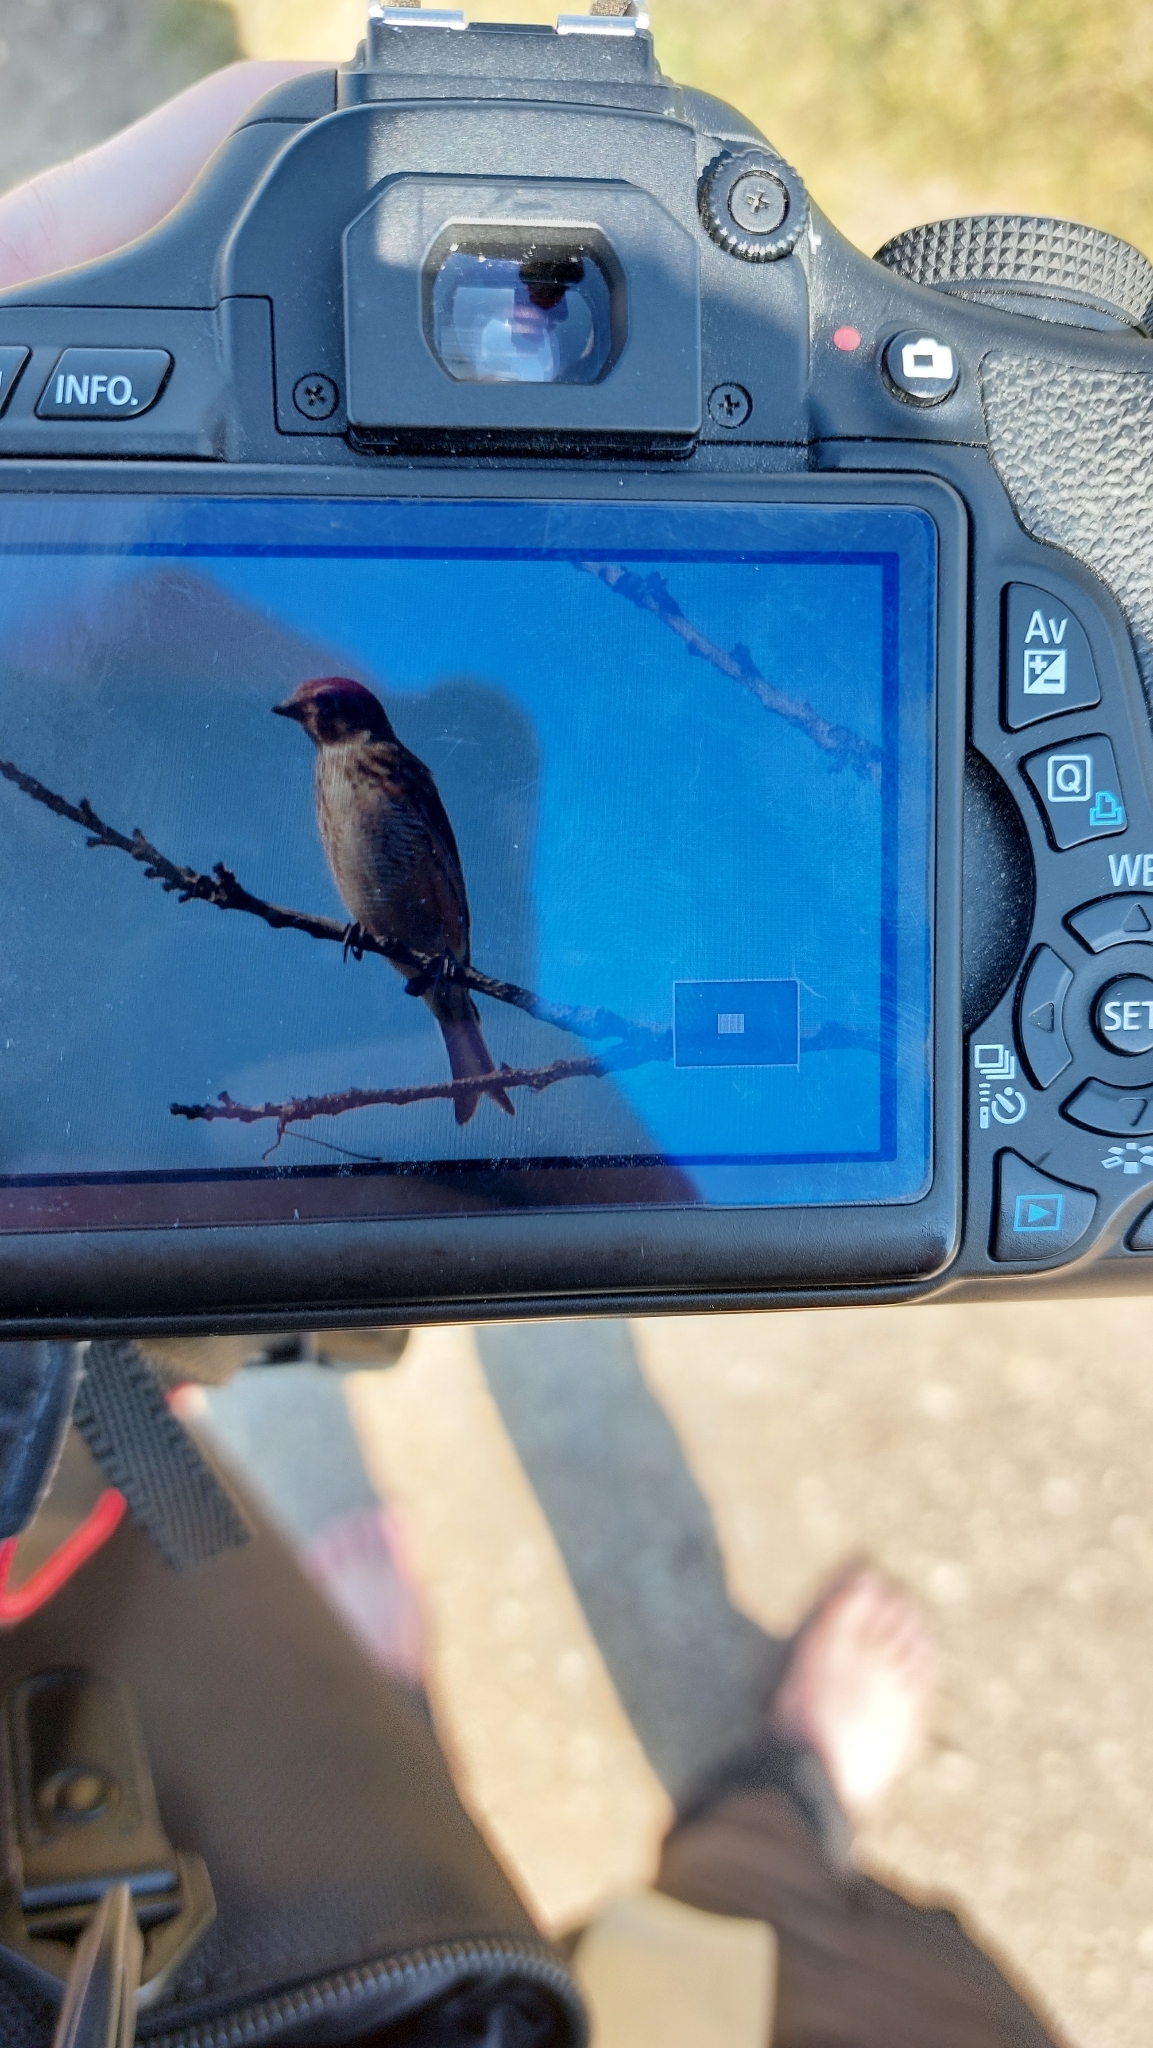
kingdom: Animalia
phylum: Chordata
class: Aves
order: Passeriformes
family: Fringillidae
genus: Linaria
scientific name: Linaria cannabina
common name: Common linnet
